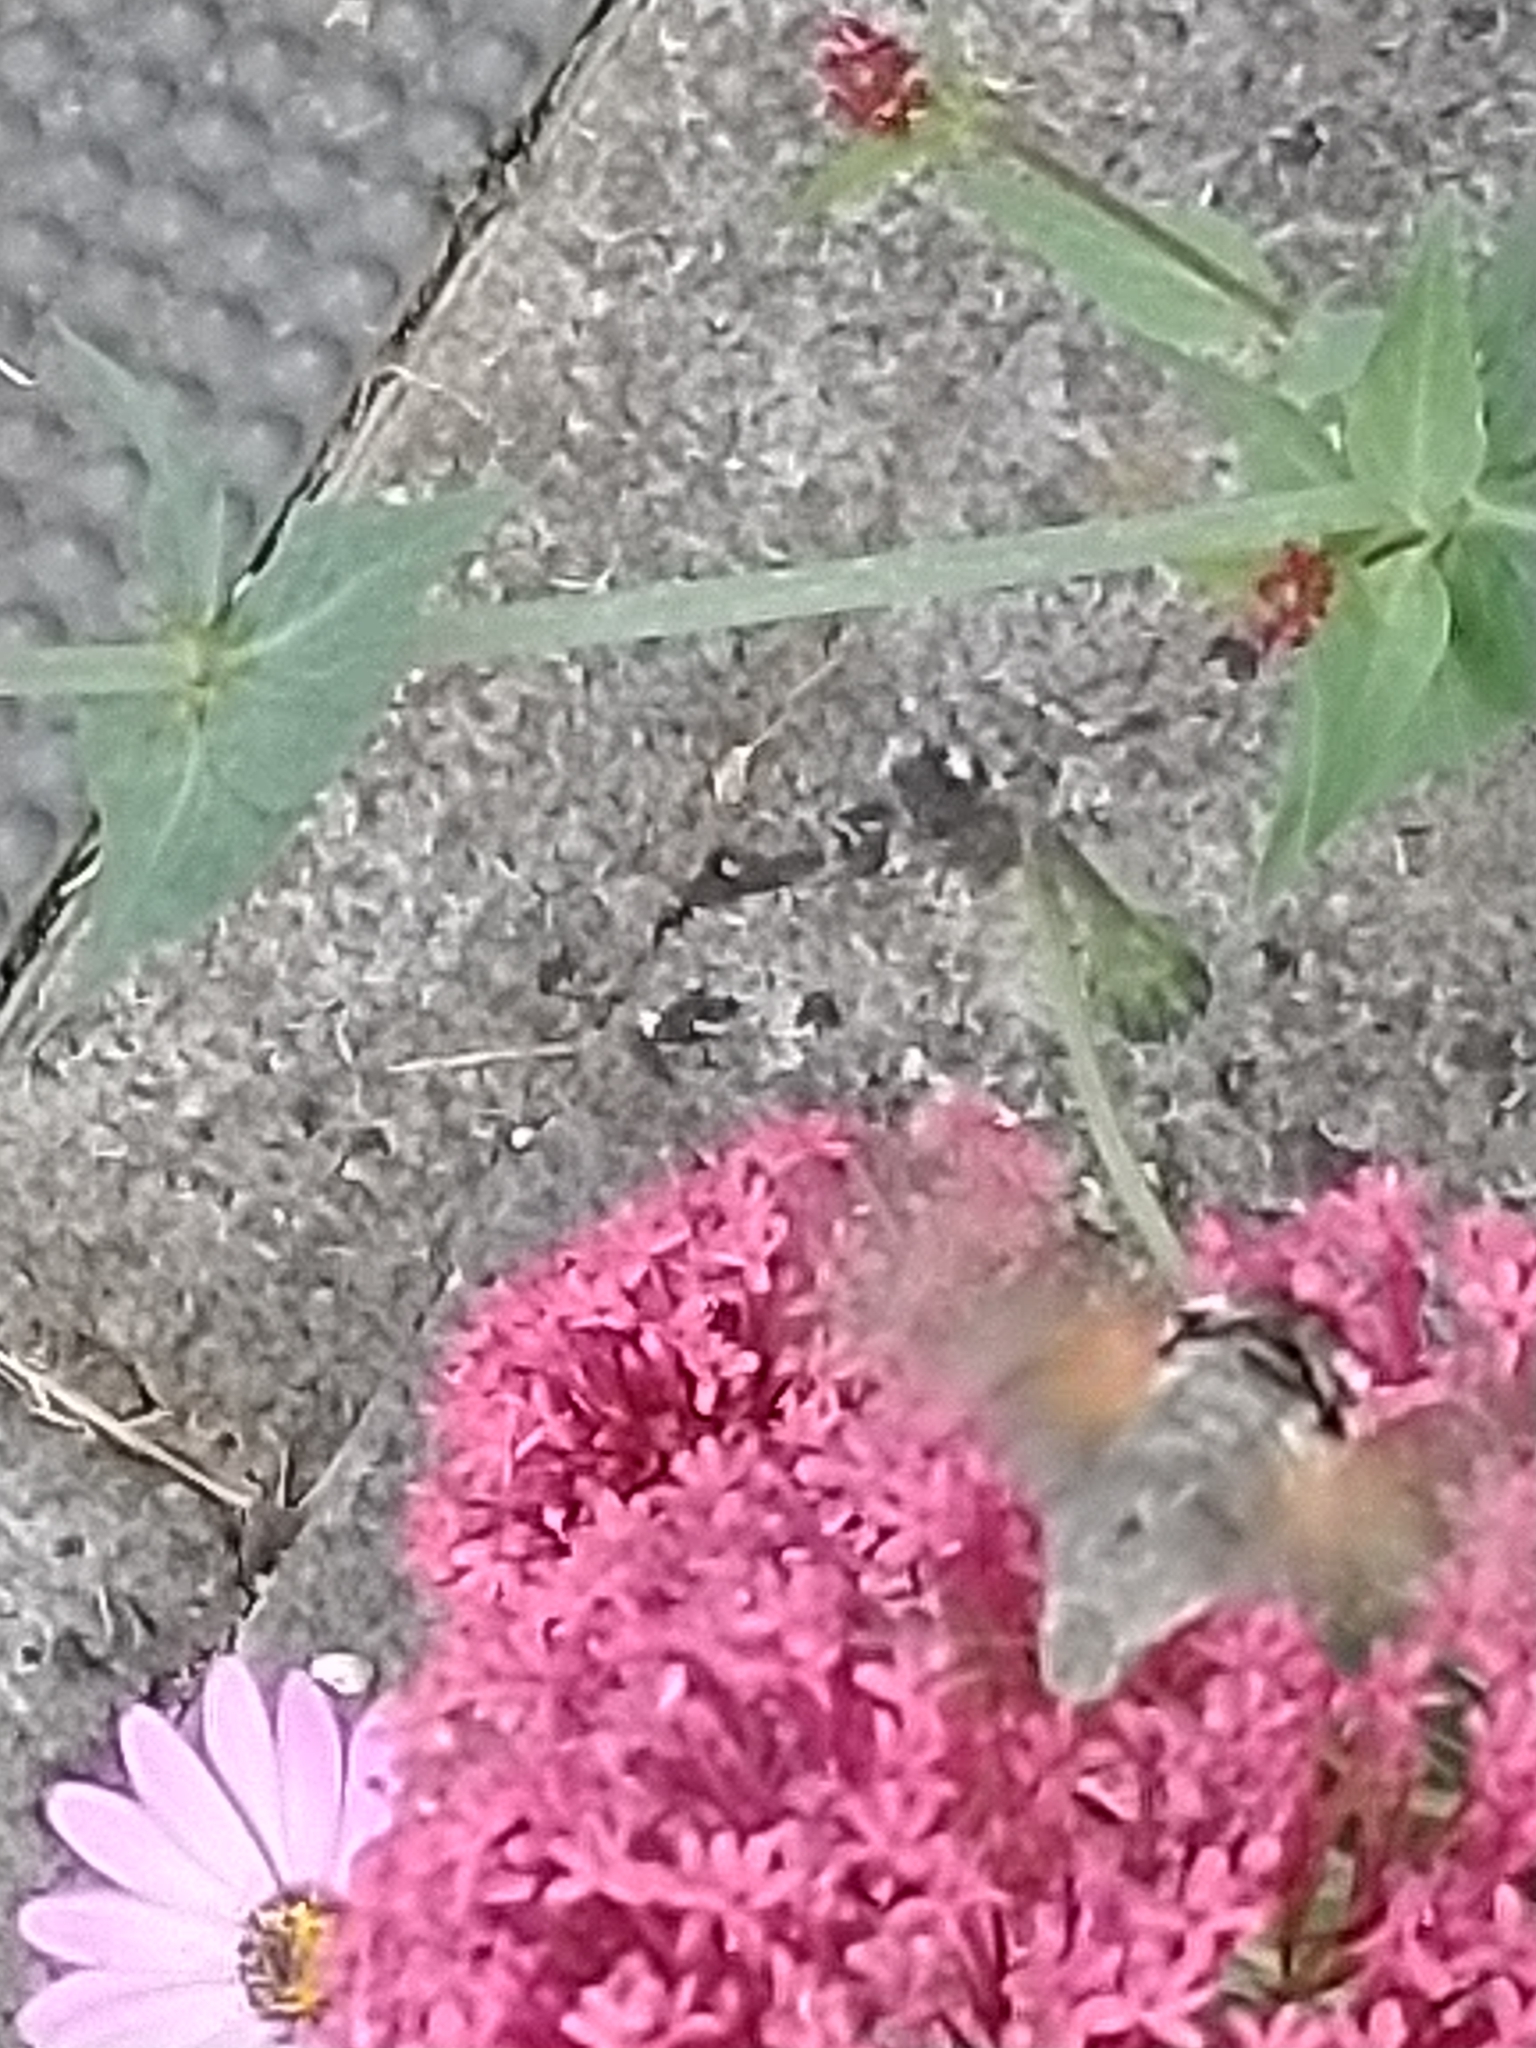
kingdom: Animalia
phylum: Arthropoda
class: Insecta
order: Lepidoptera
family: Sphingidae
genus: Macroglossum
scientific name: Macroglossum stellatarum
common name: Humming-bird hawk-moth
